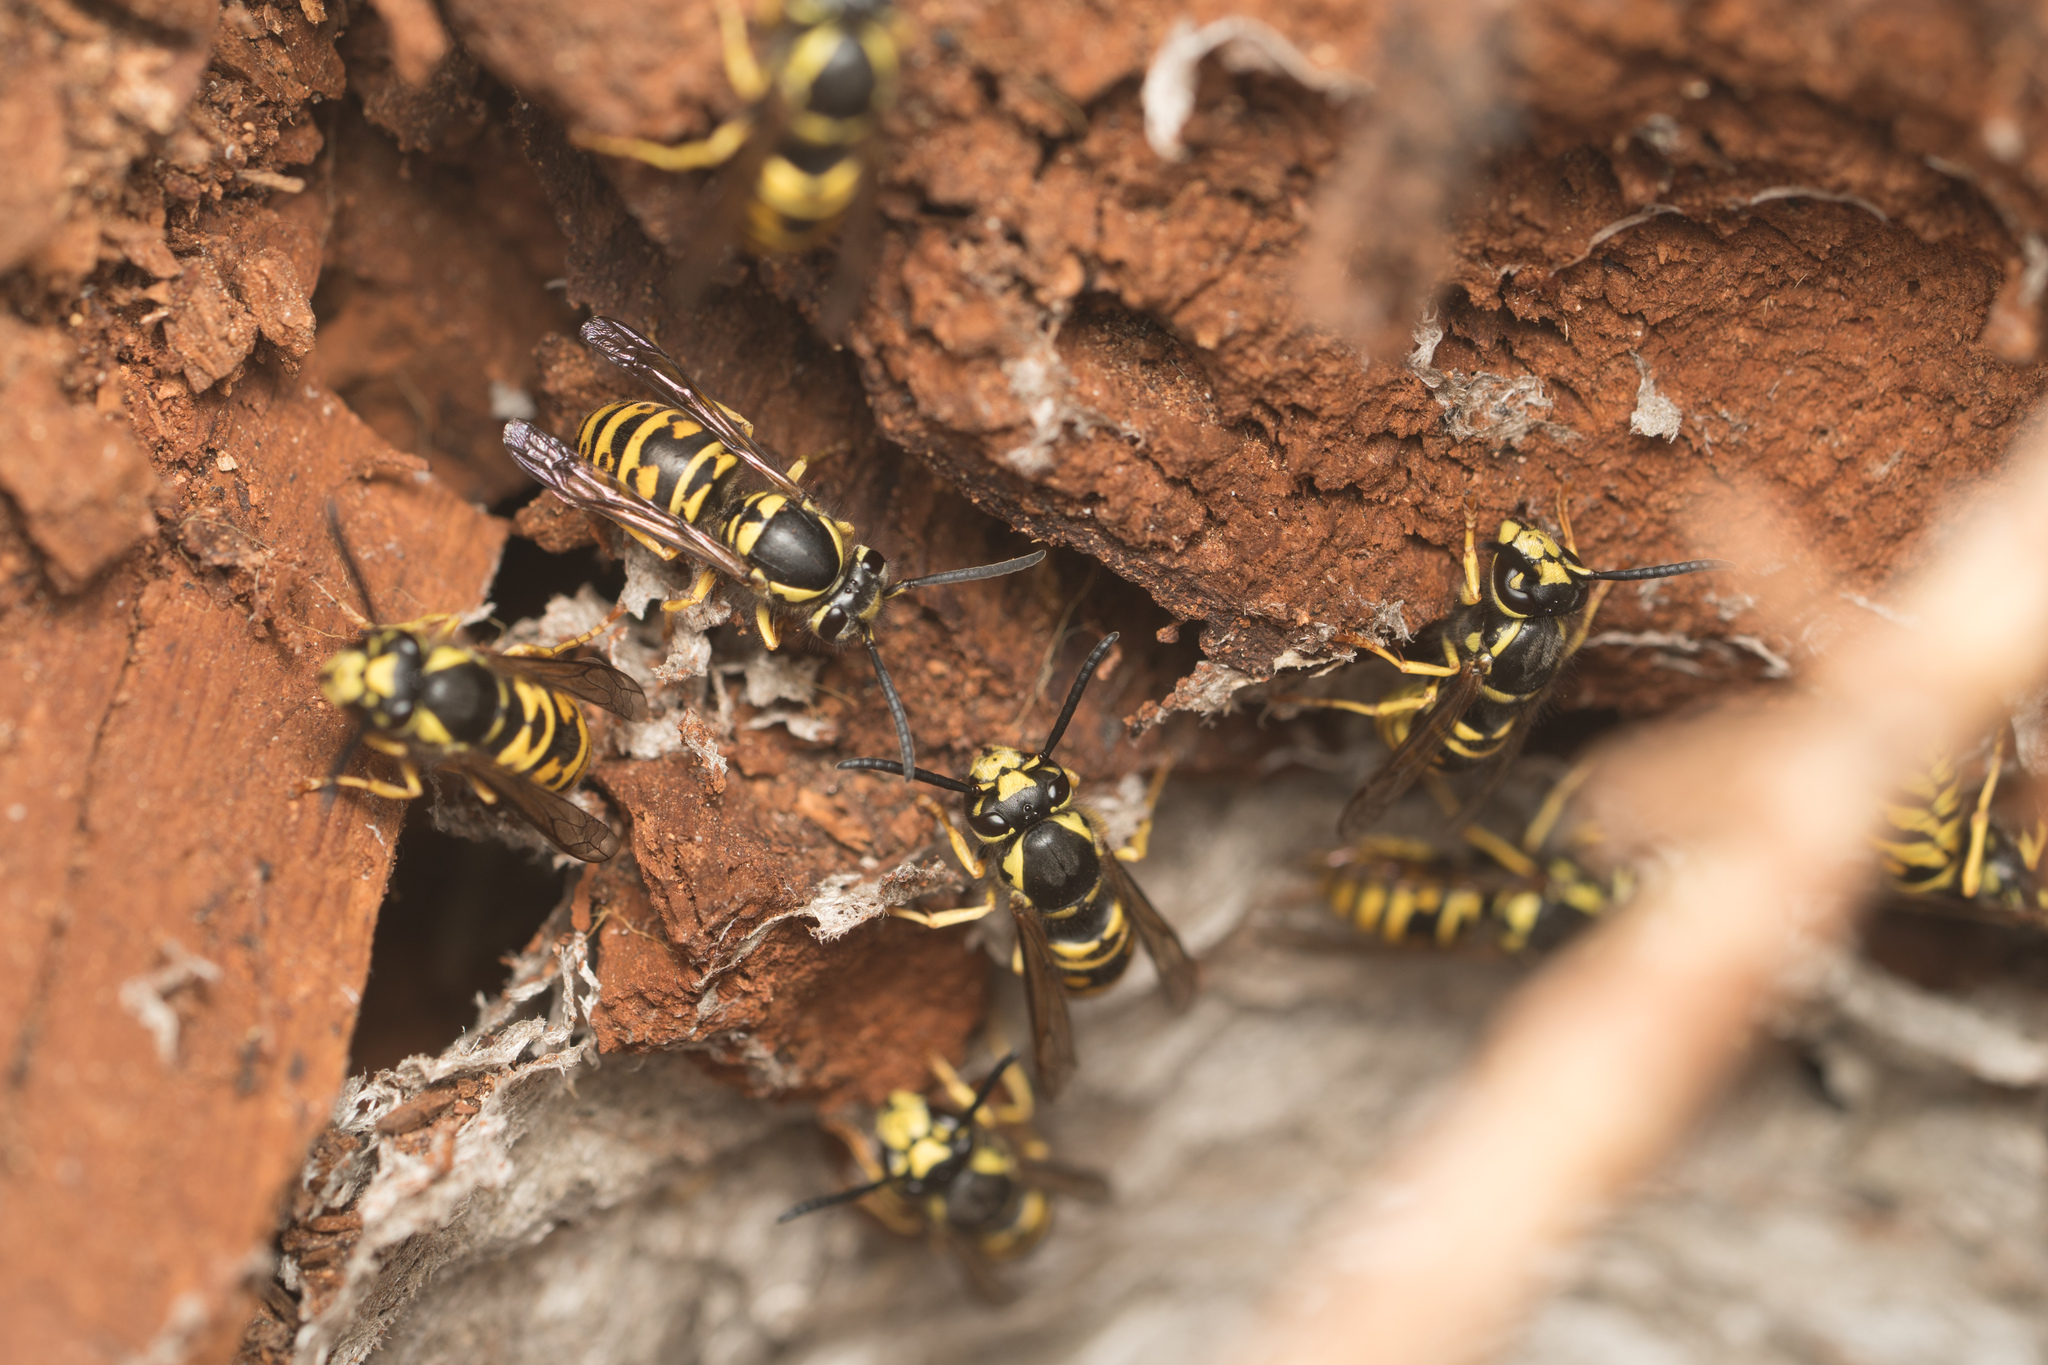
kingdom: Animalia
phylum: Arthropoda
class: Insecta
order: Hymenoptera
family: Vespidae
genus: Vespula
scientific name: Vespula acadica
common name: Forest yellowjacket
